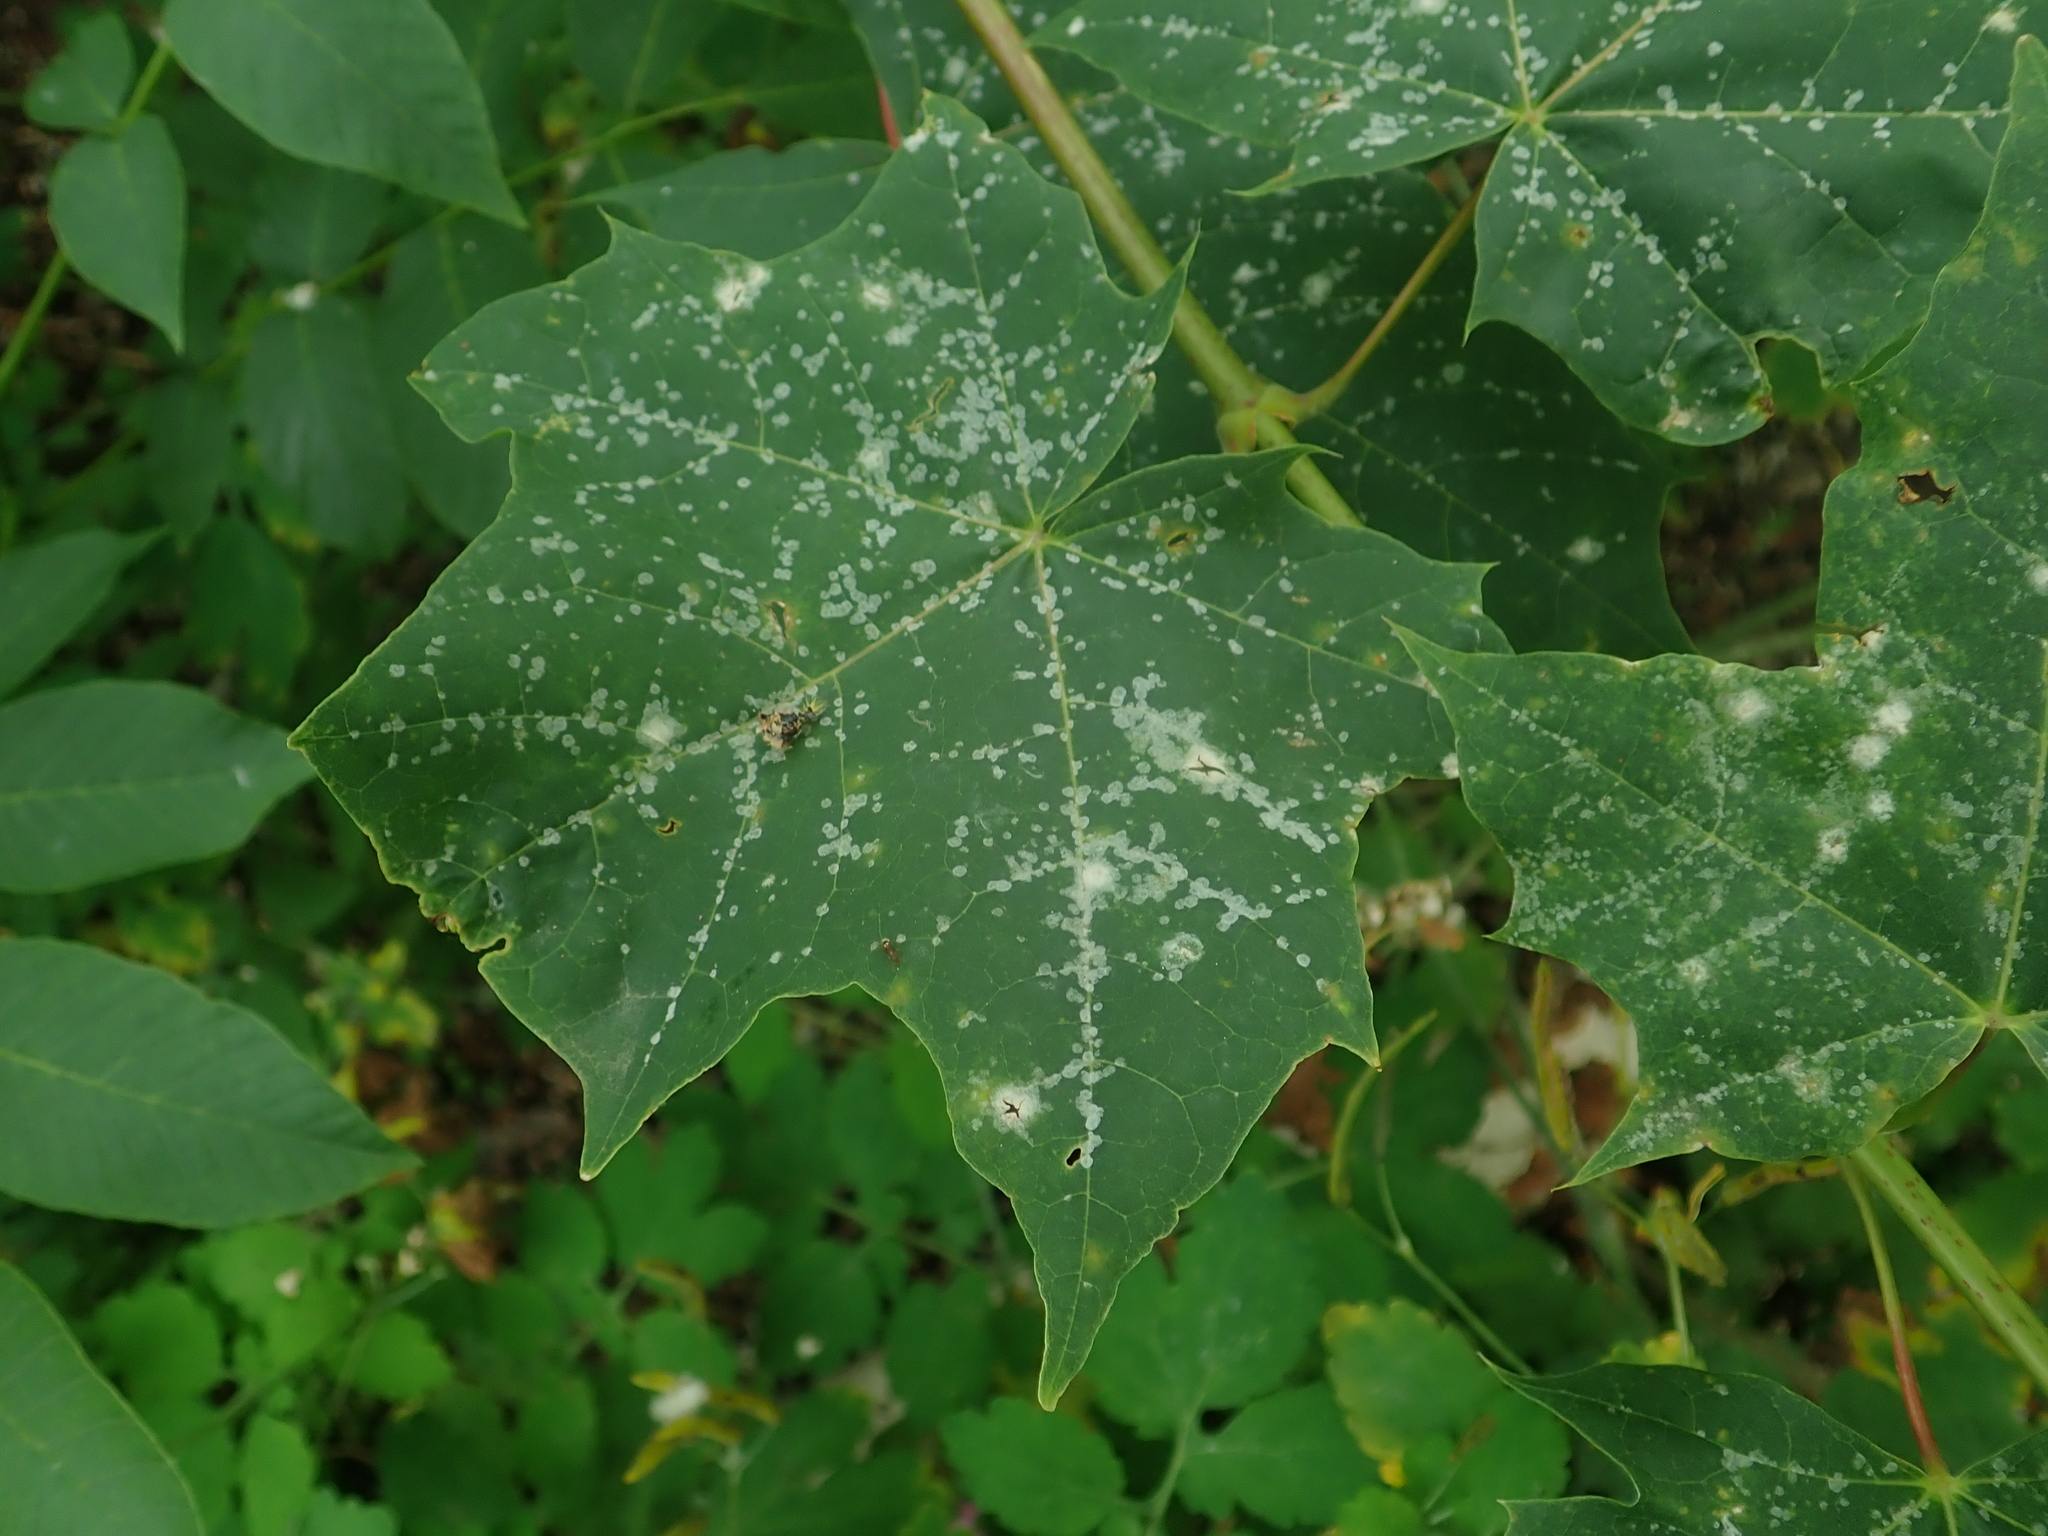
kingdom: Fungi
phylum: Ascomycota
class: Leotiomycetes
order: Helotiales
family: Erysiphaceae
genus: Sawadaea
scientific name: Sawadaea tulasnei
